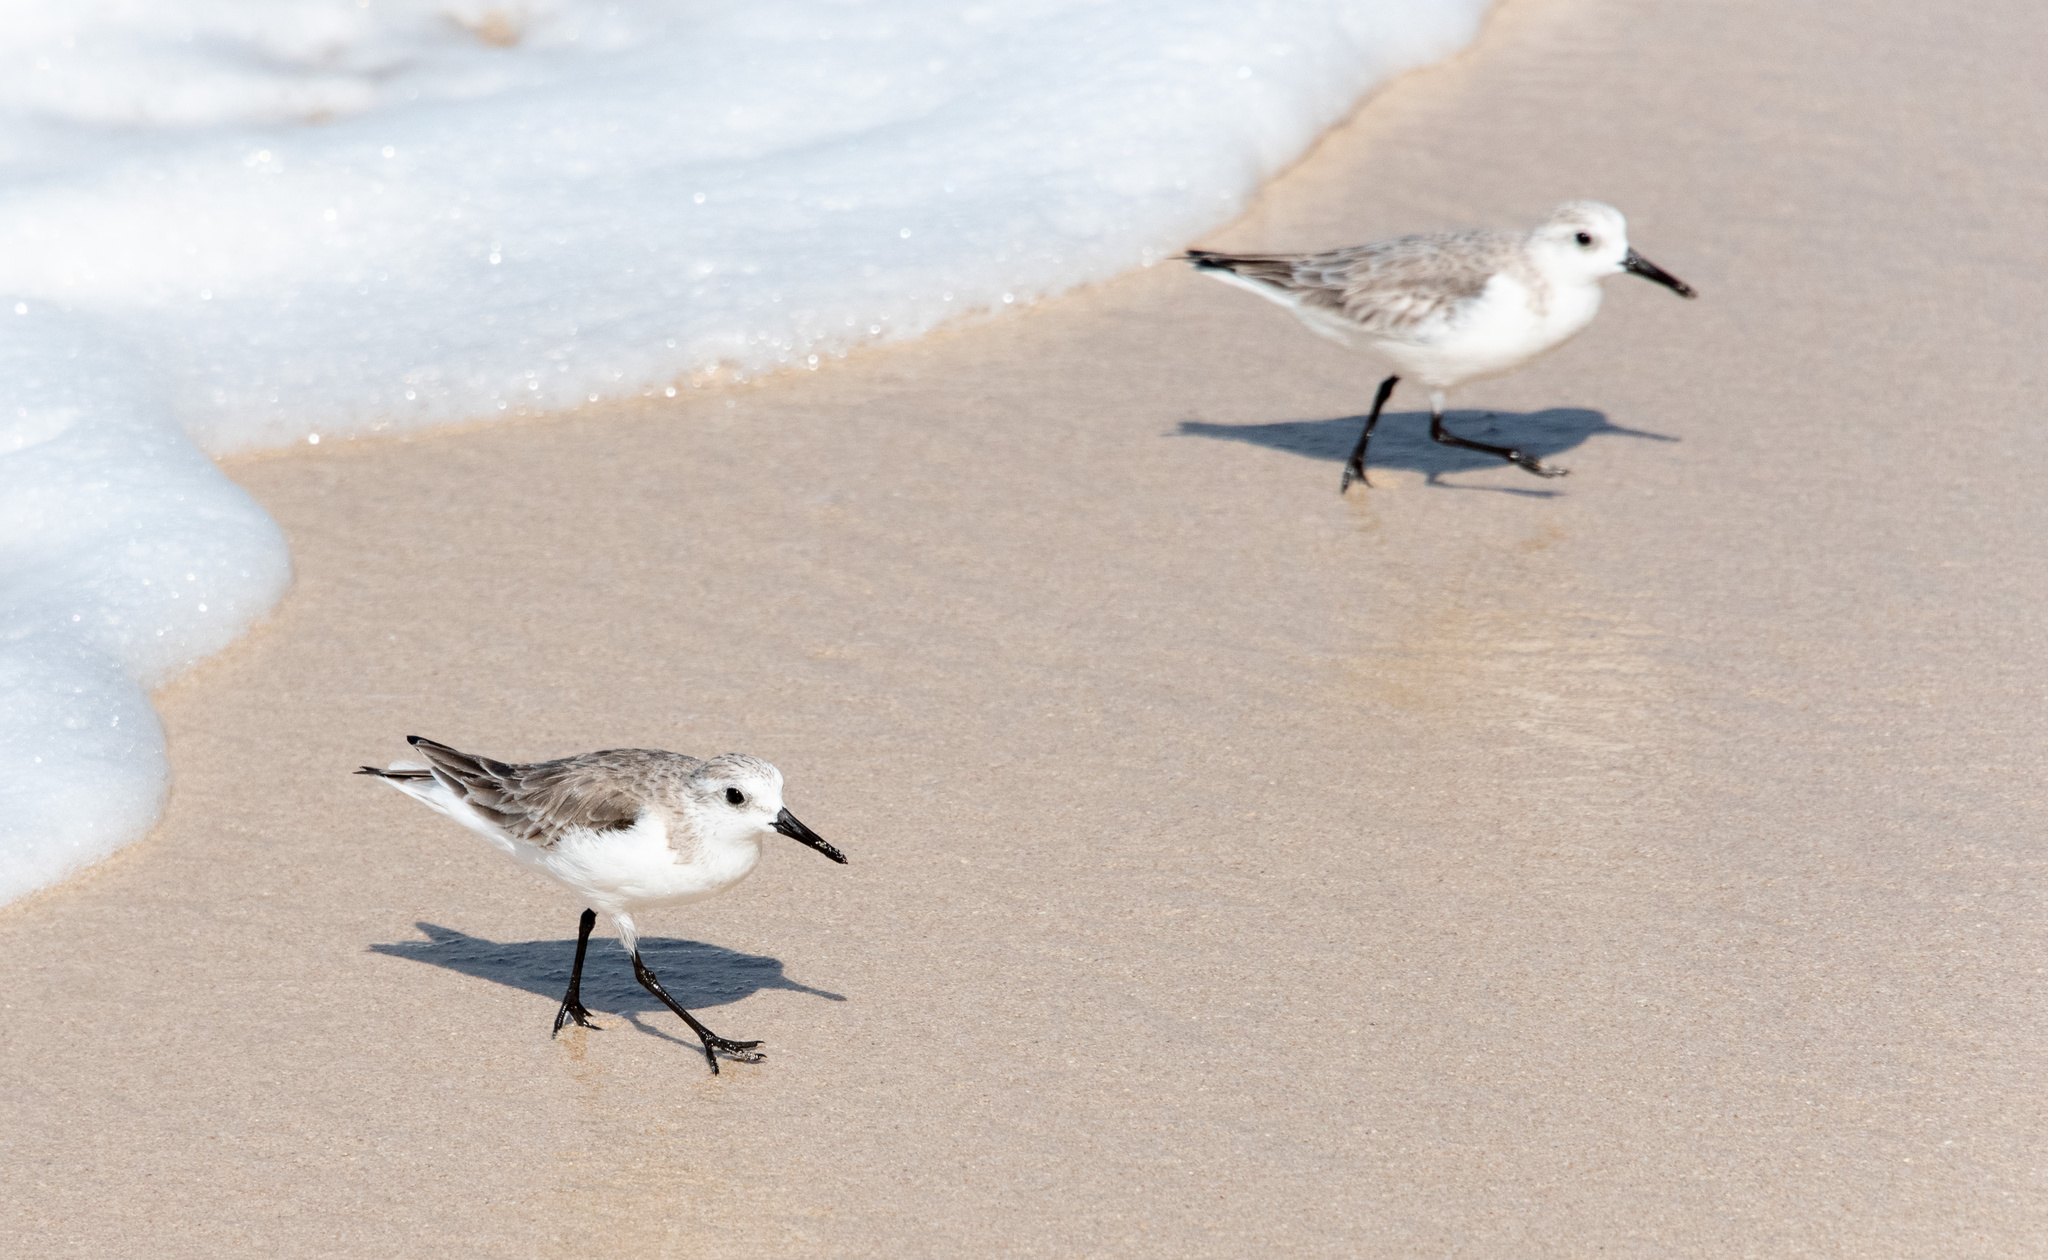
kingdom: Animalia
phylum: Chordata
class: Aves
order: Charadriiformes
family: Scolopacidae
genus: Calidris
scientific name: Calidris alba
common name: Sanderling
